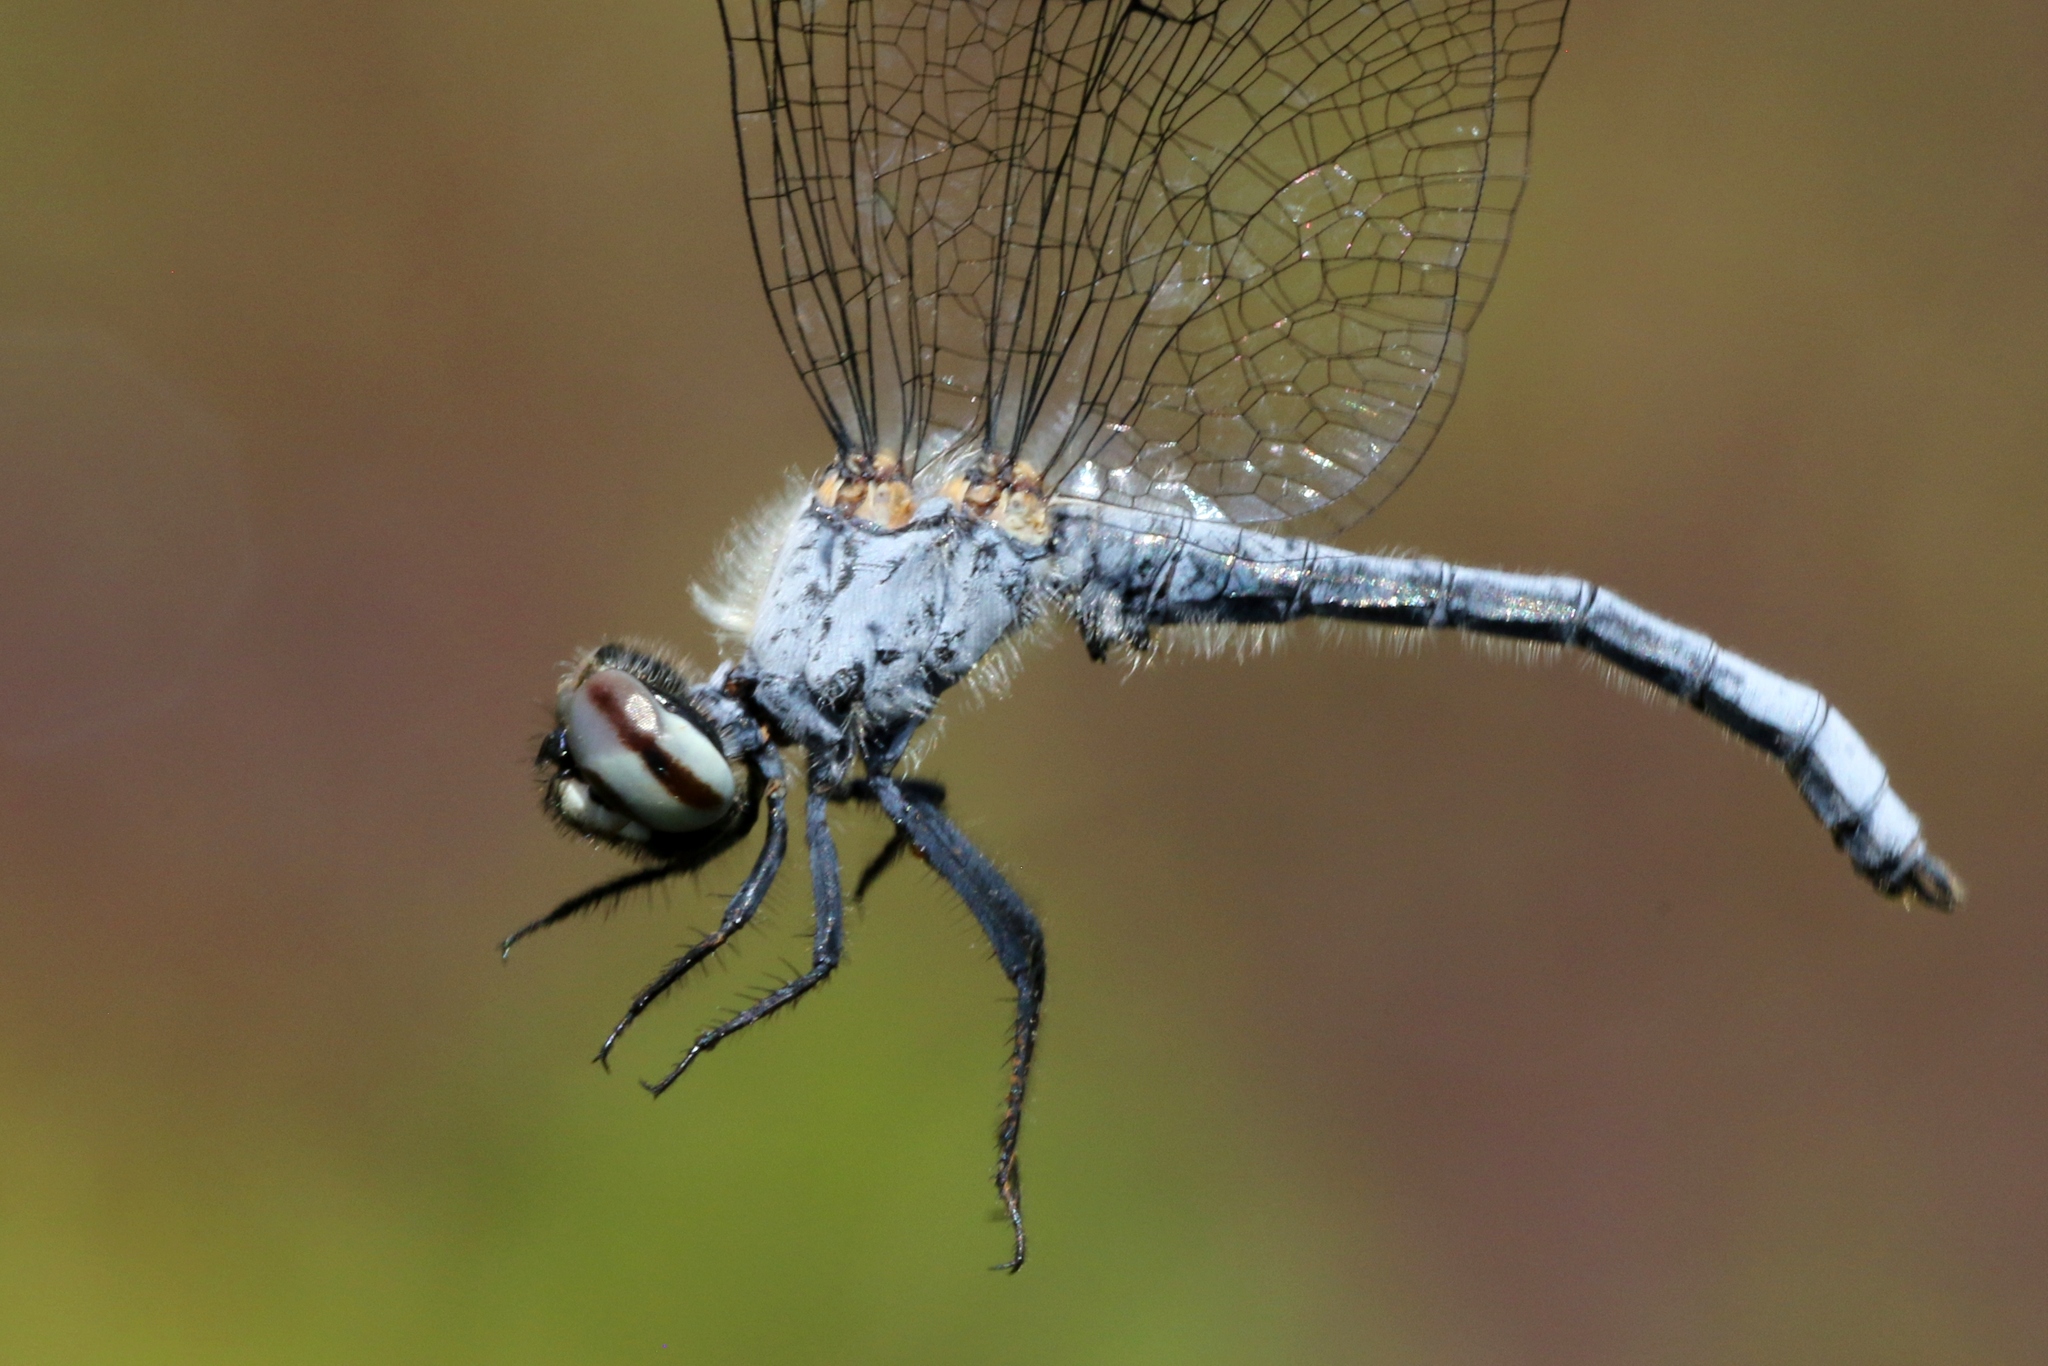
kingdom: Animalia
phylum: Arthropoda
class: Insecta
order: Odonata
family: Libellulidae
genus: Nannothemis
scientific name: Nannothemis bella
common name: Elfin skimmer
